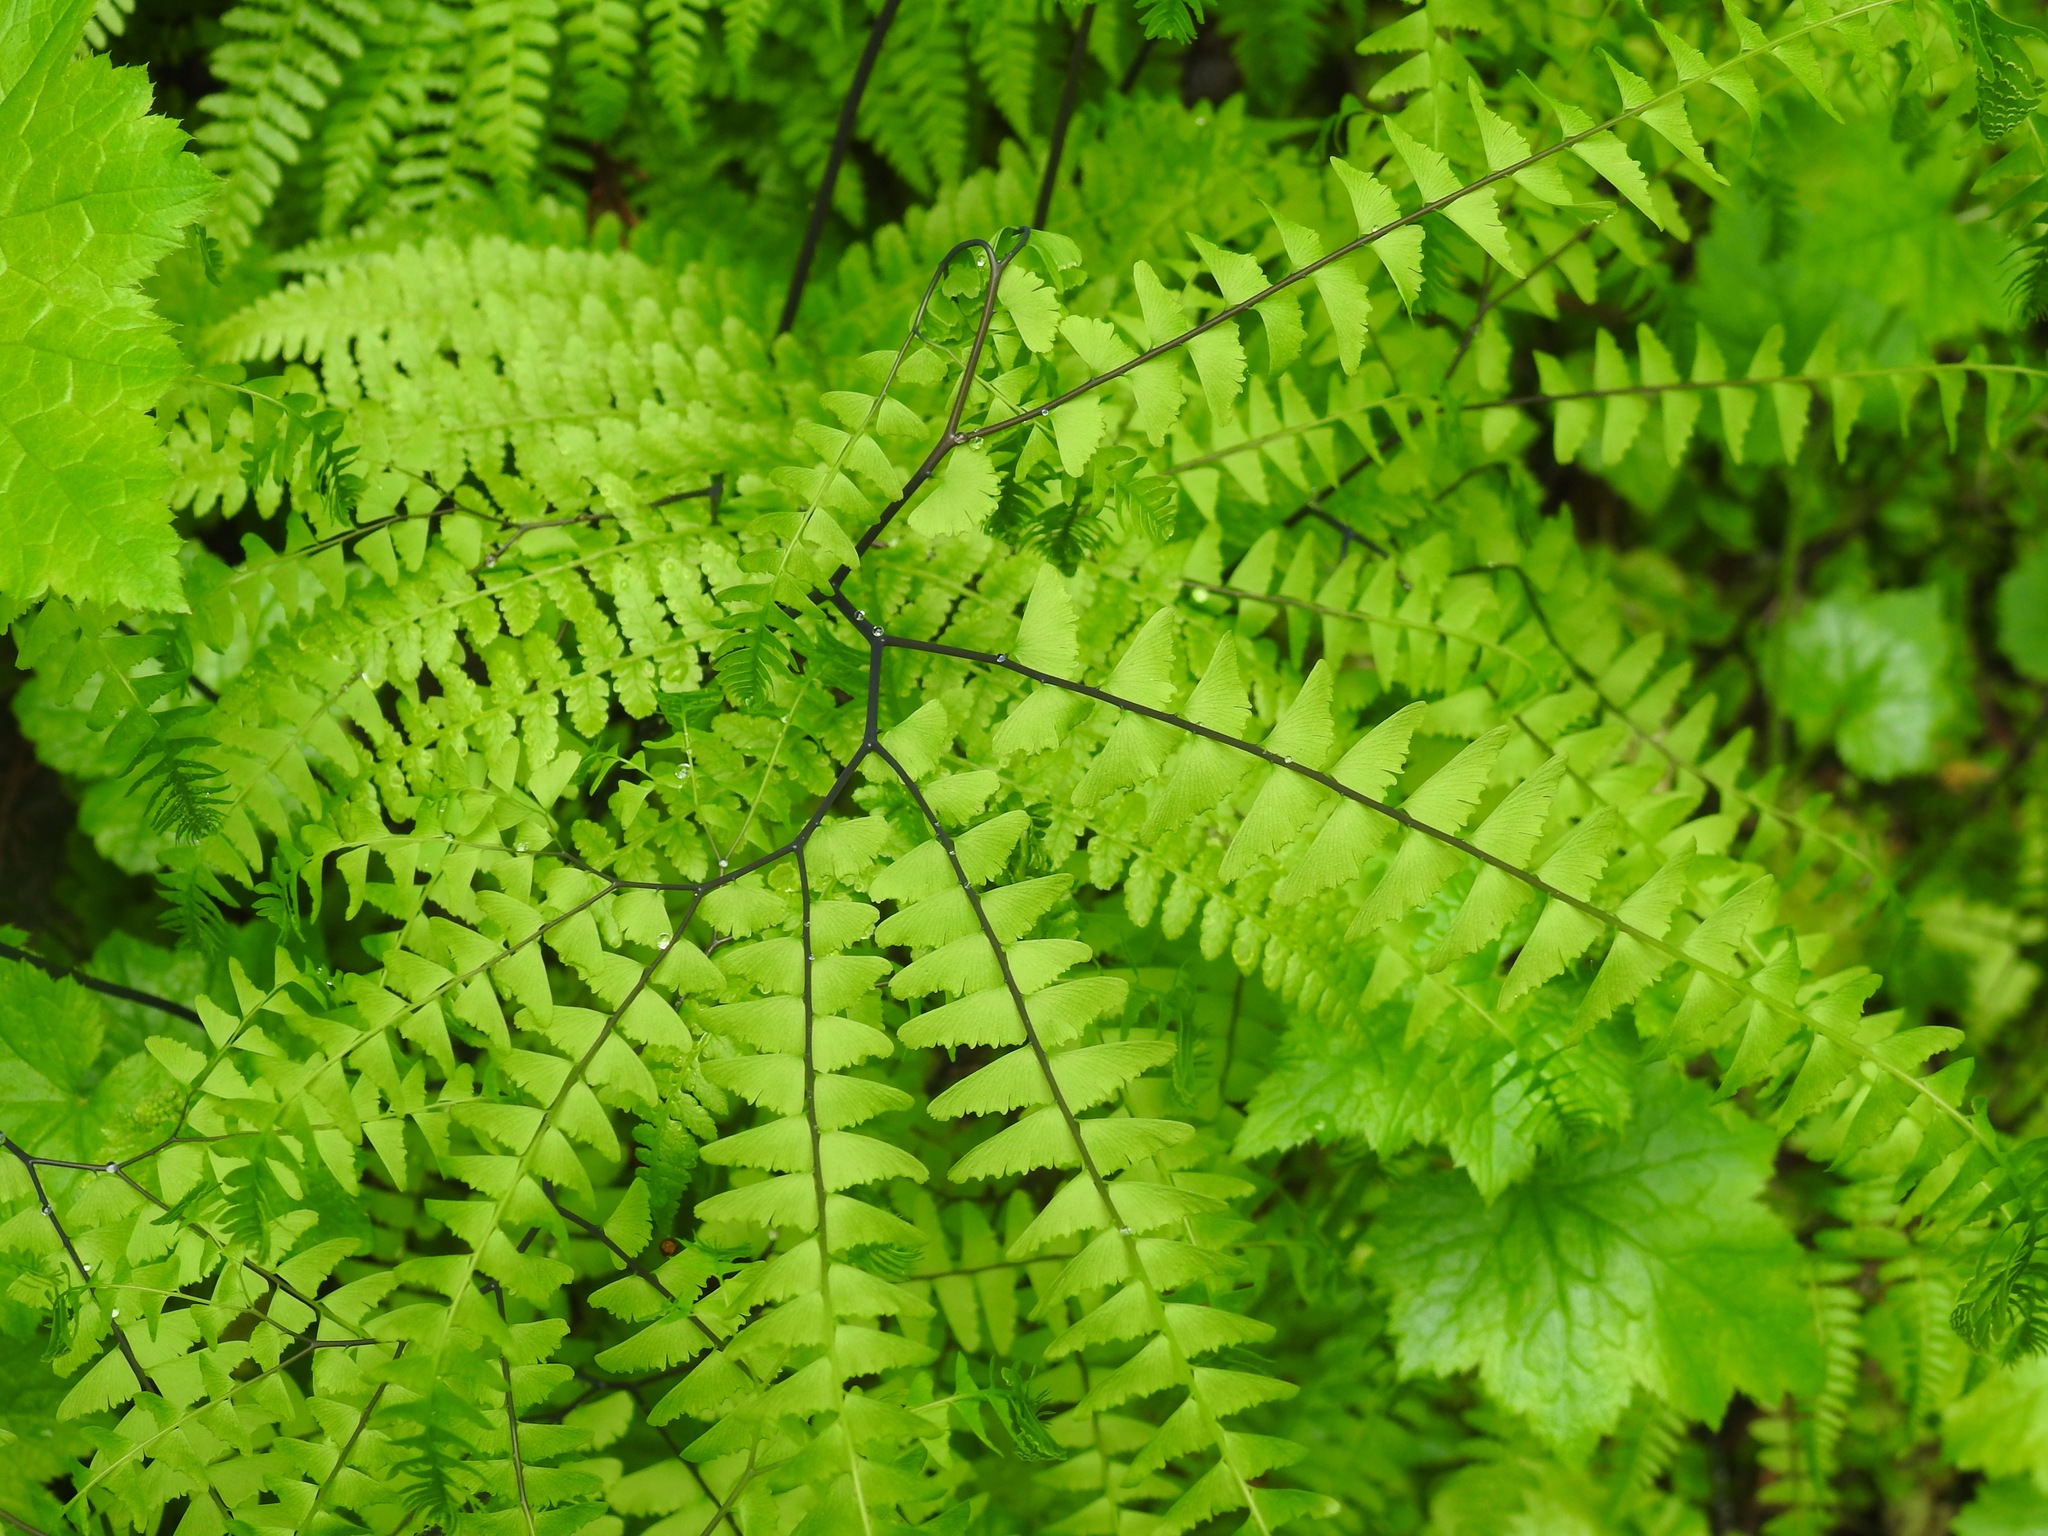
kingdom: Plantae
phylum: Tracheophyta
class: Polypodiopsida
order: Polypodiales
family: Pteridaceae
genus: Adiantum
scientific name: Adiantum aleuticum
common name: Aleutian maidenhair fern
